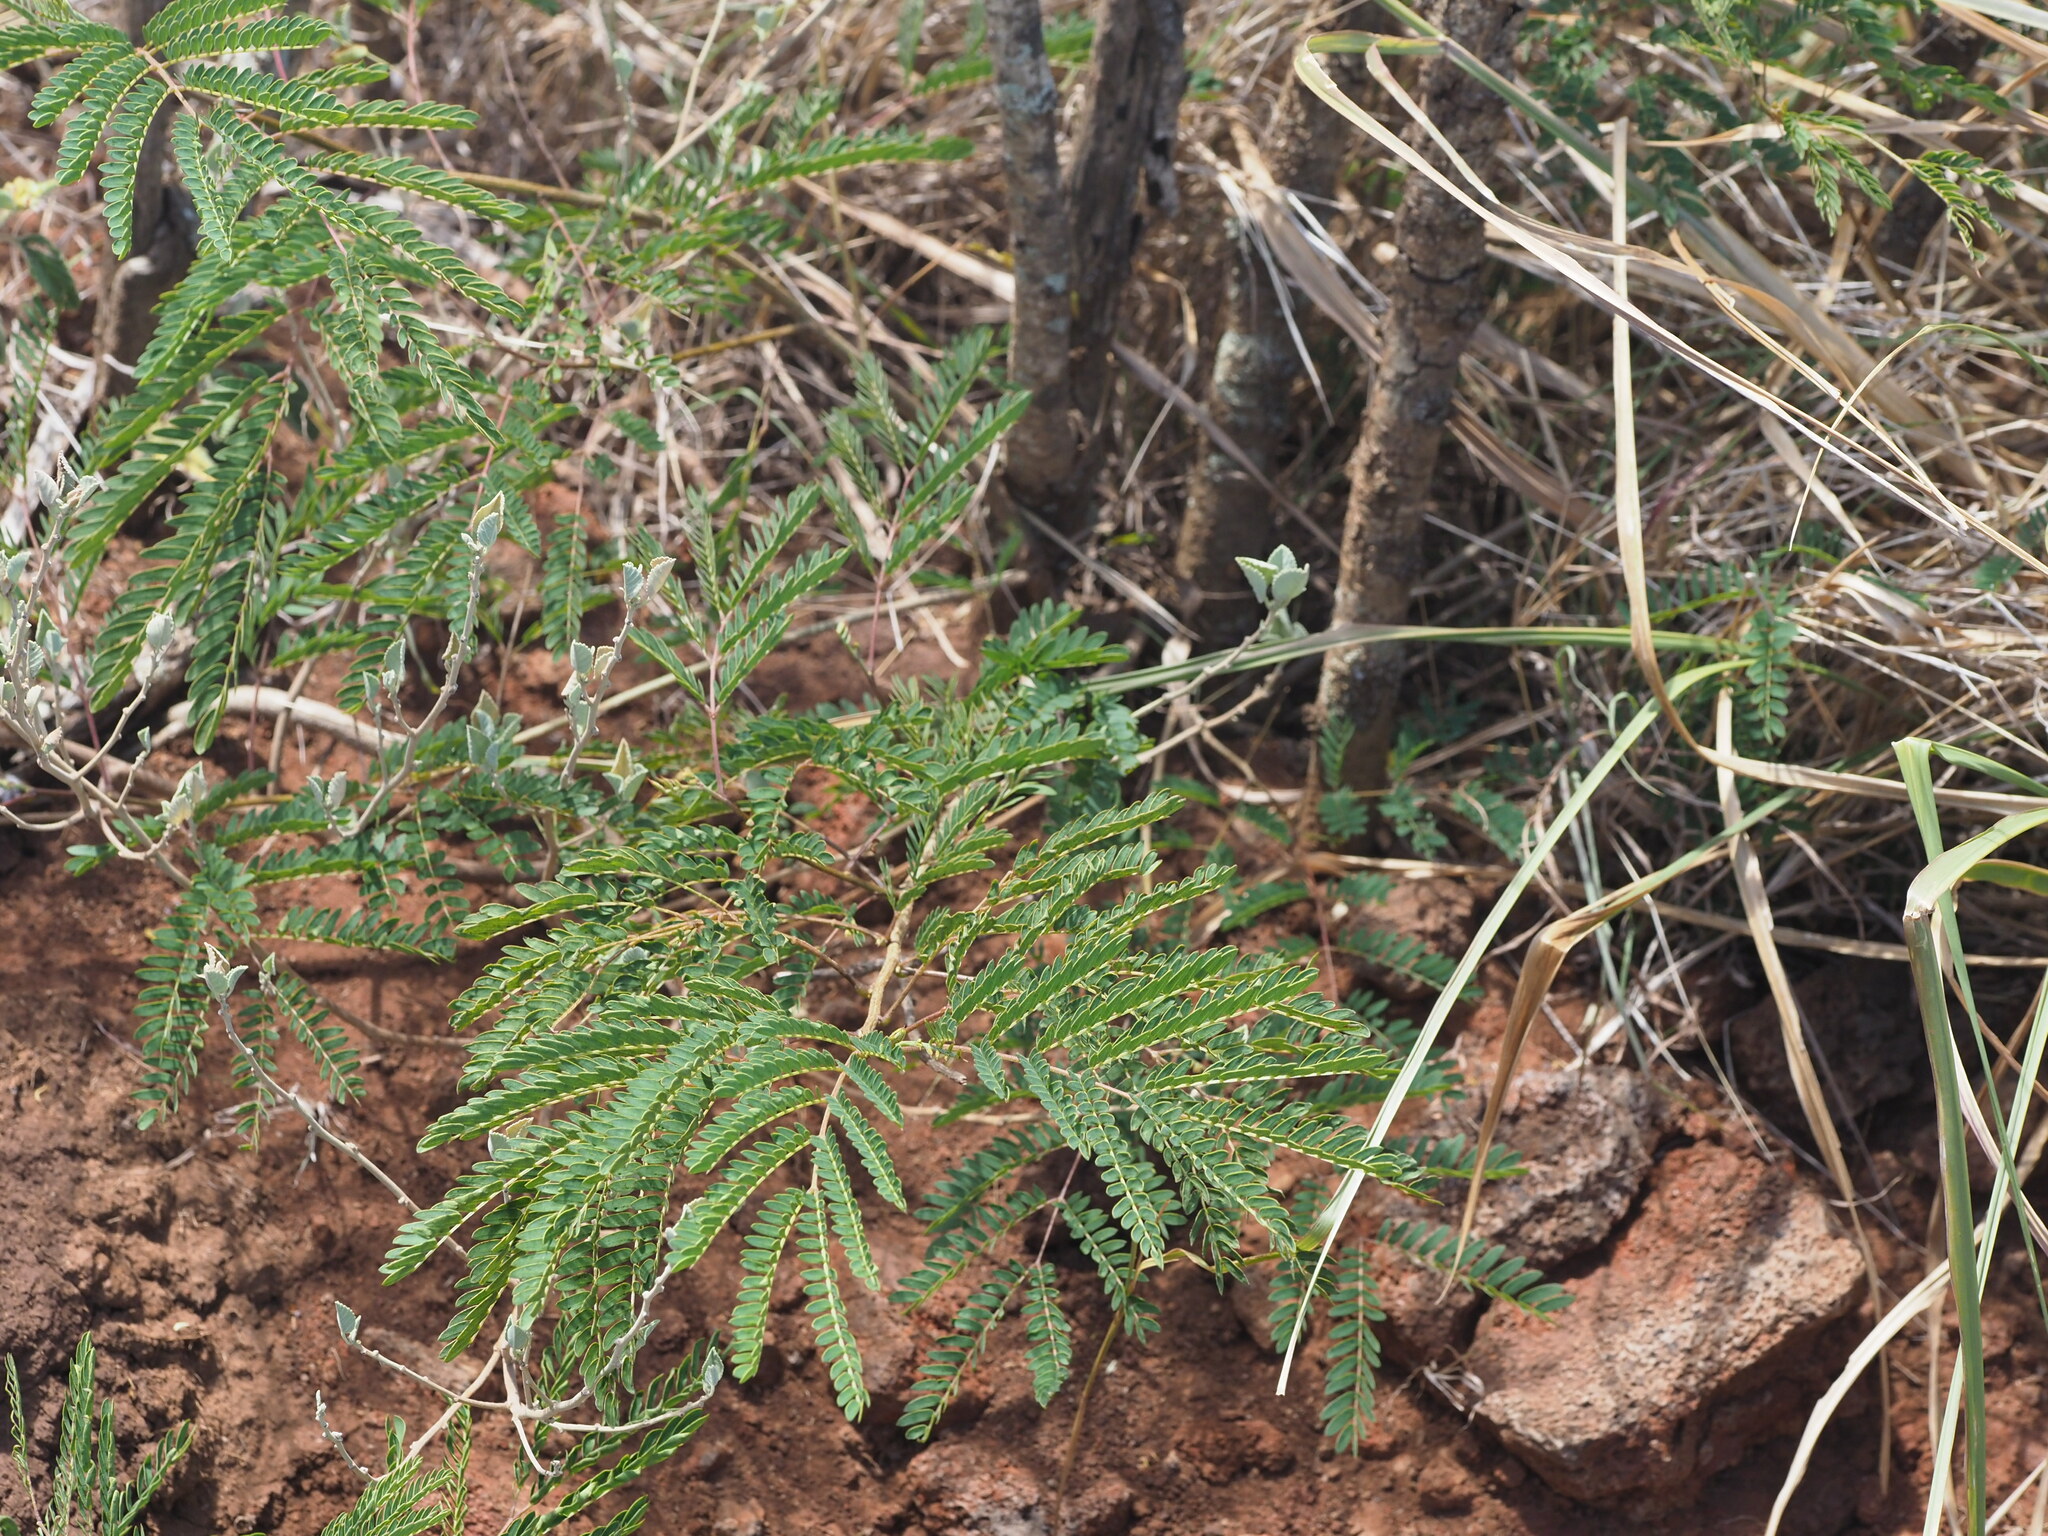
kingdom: Plantae
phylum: Tracheophyta
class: Magnoliopsida
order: Fabales
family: Fabaceae
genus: Leucaena
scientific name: Leucaena leucocephala
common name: White leadtree
